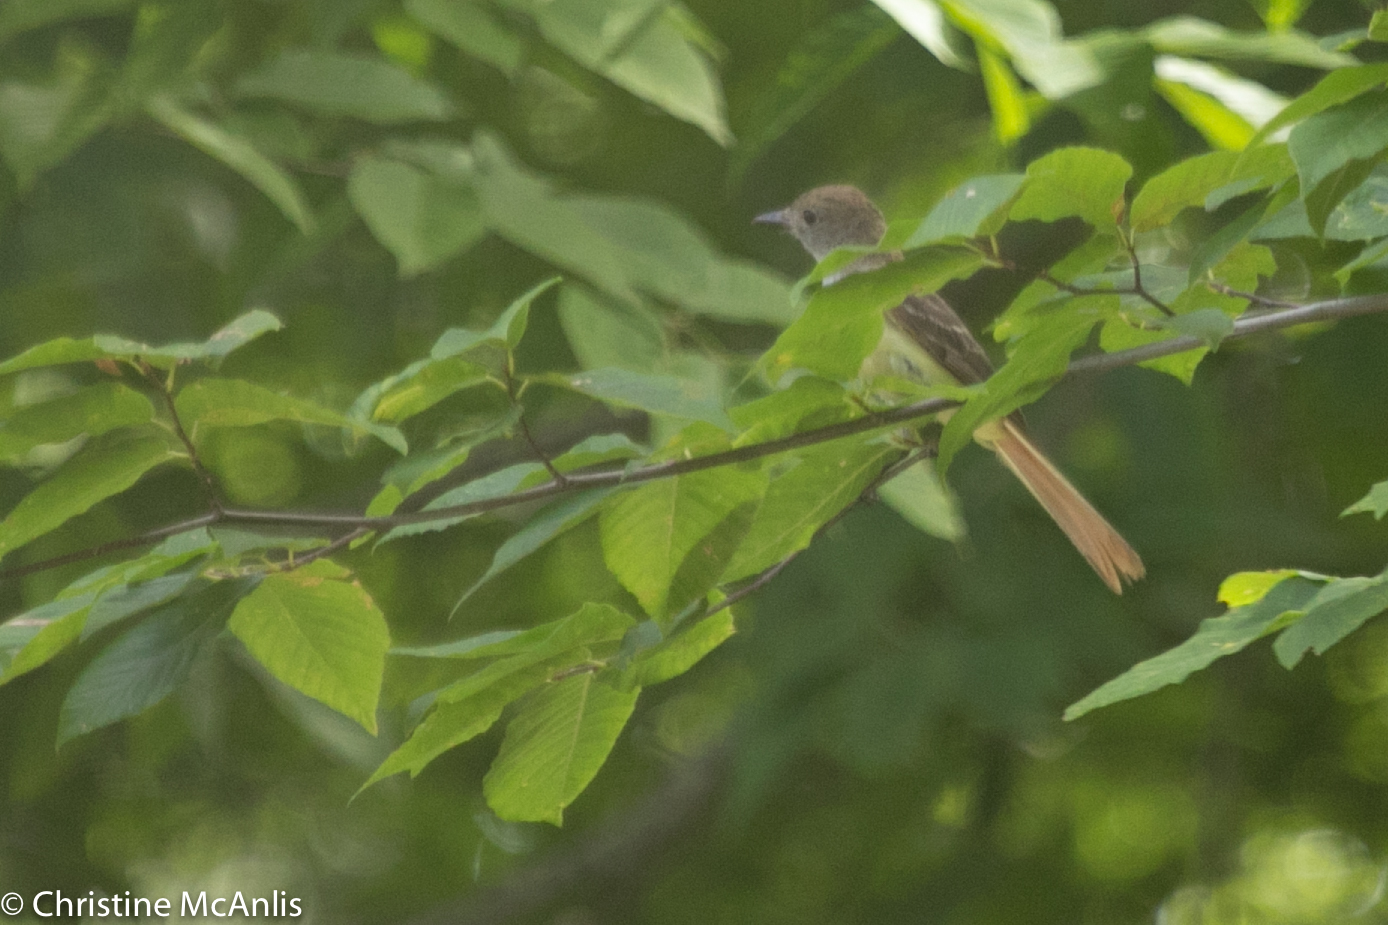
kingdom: Animalia
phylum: Chordata
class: Aves
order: Passeriformes
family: Tyrannidae
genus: Myiarchus
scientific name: Myiarchus crinitus
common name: Great crested flycatcher
